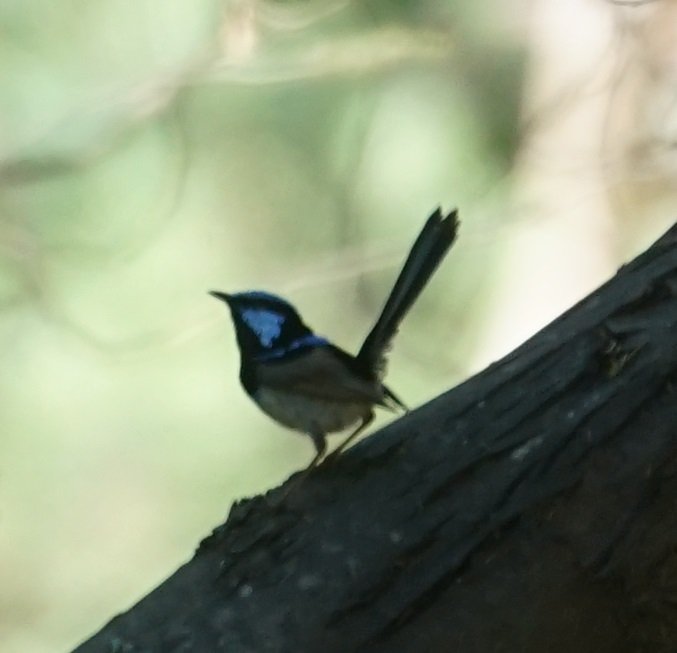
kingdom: Animalia
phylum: Chordata
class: Aves
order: Passeriformes
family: Maluridae
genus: Malurus
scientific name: Malurus cyaneus
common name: Superb fairywren
